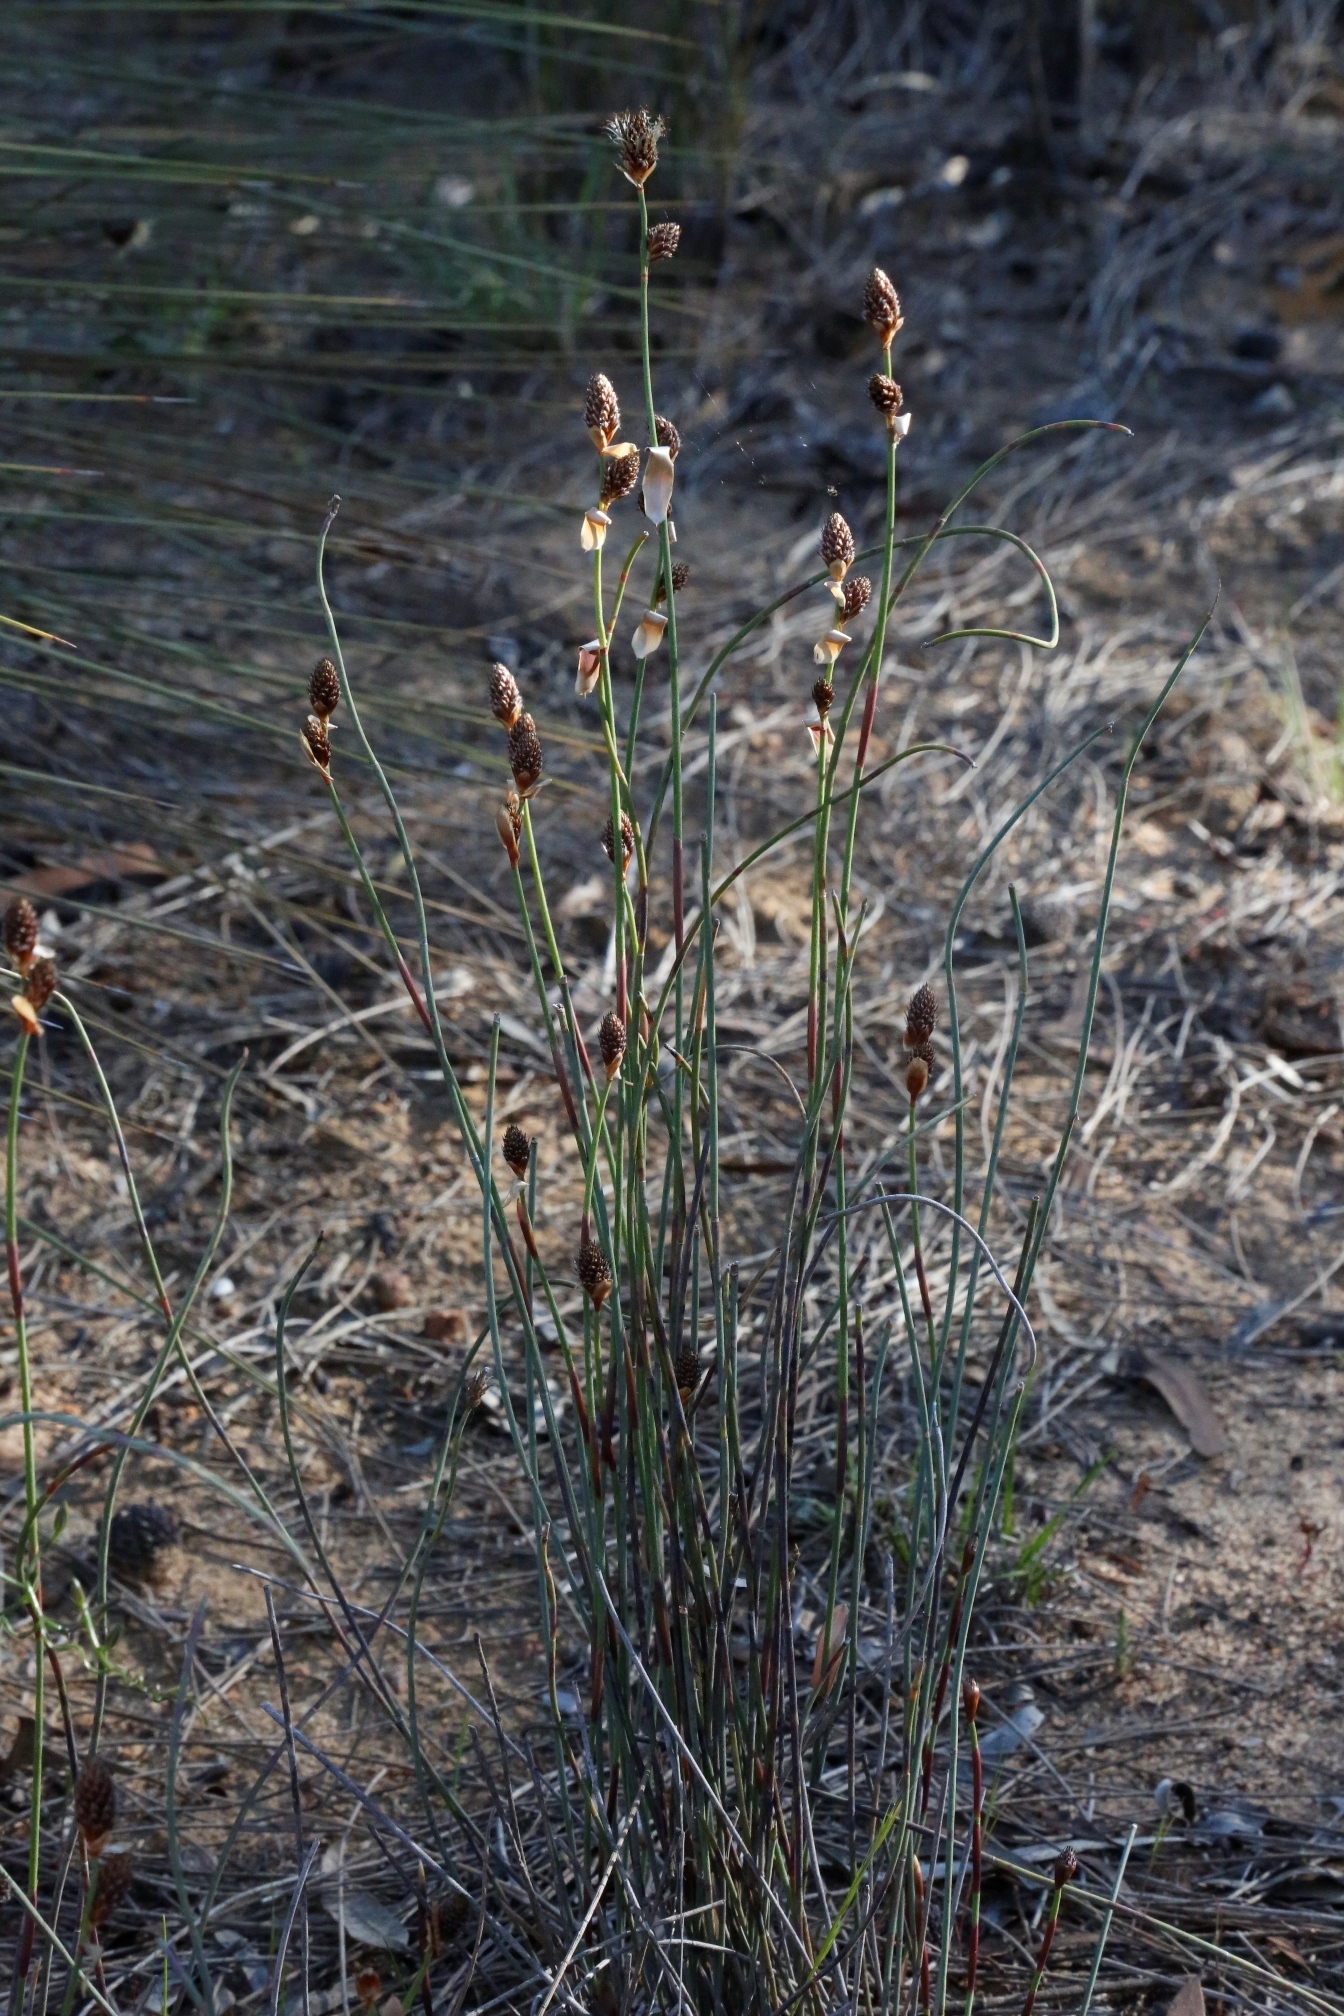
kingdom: Plantae
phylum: Tracheophyta
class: Liliopsida
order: Poales
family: Restionaceae
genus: Lepidobolus
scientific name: Lepidobolus preissianus
